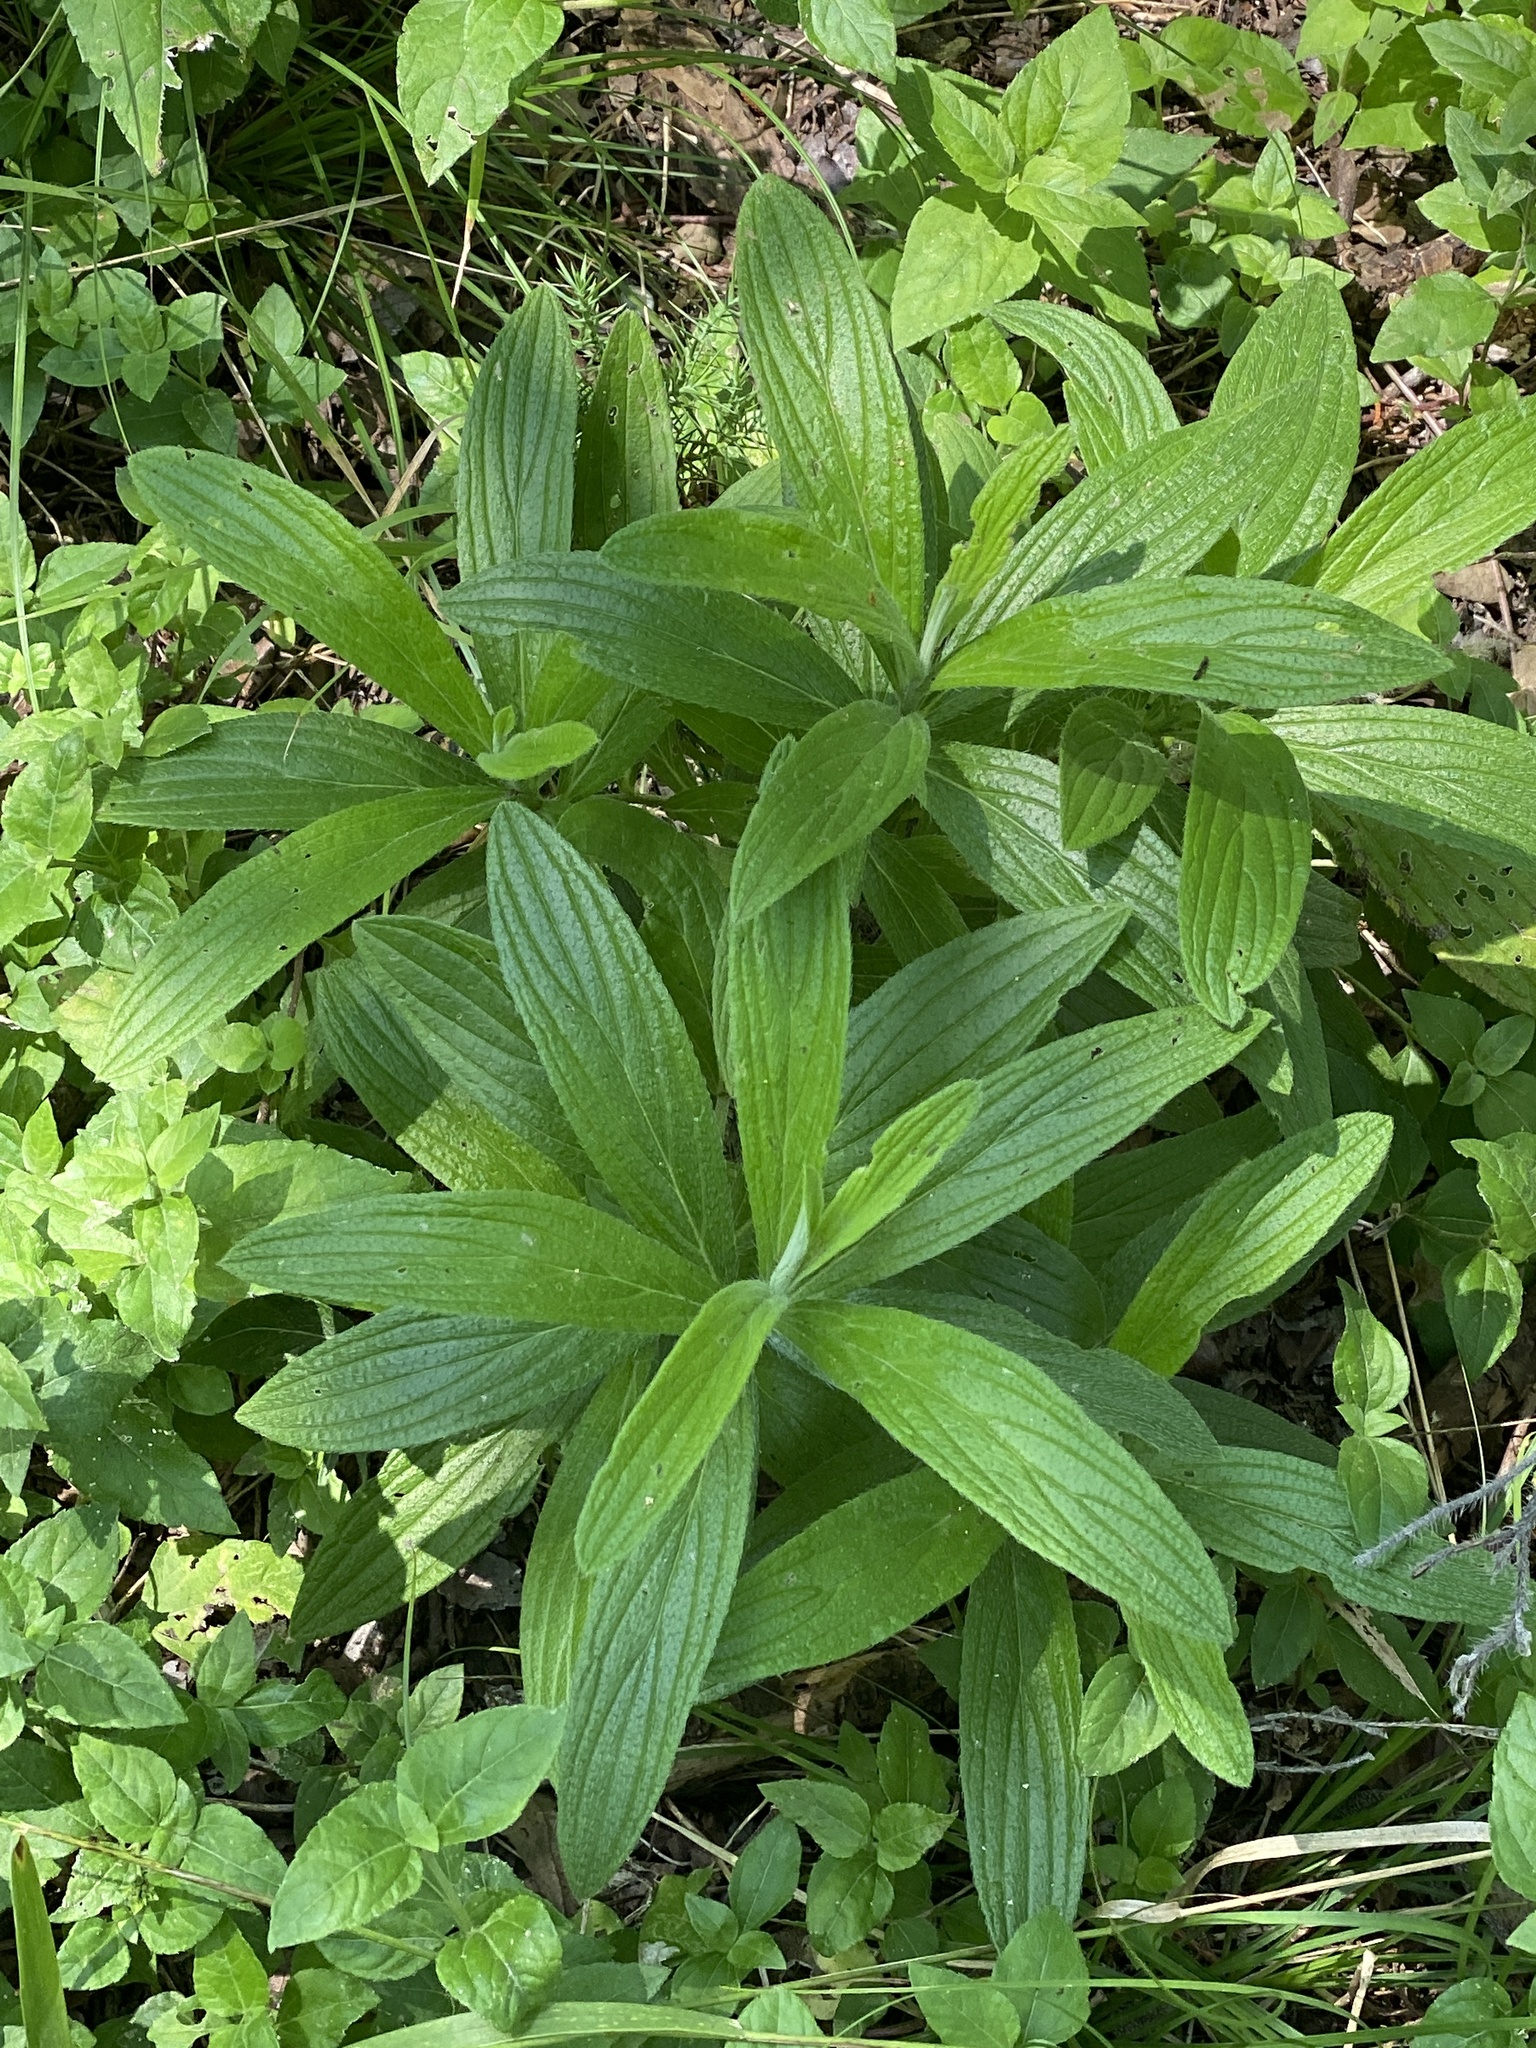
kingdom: Plantae
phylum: Tracheophyta
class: Magnoliopsida
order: Boraginales
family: Boraginaceae
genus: Lithospermum
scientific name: Lithospermum caroliniense
